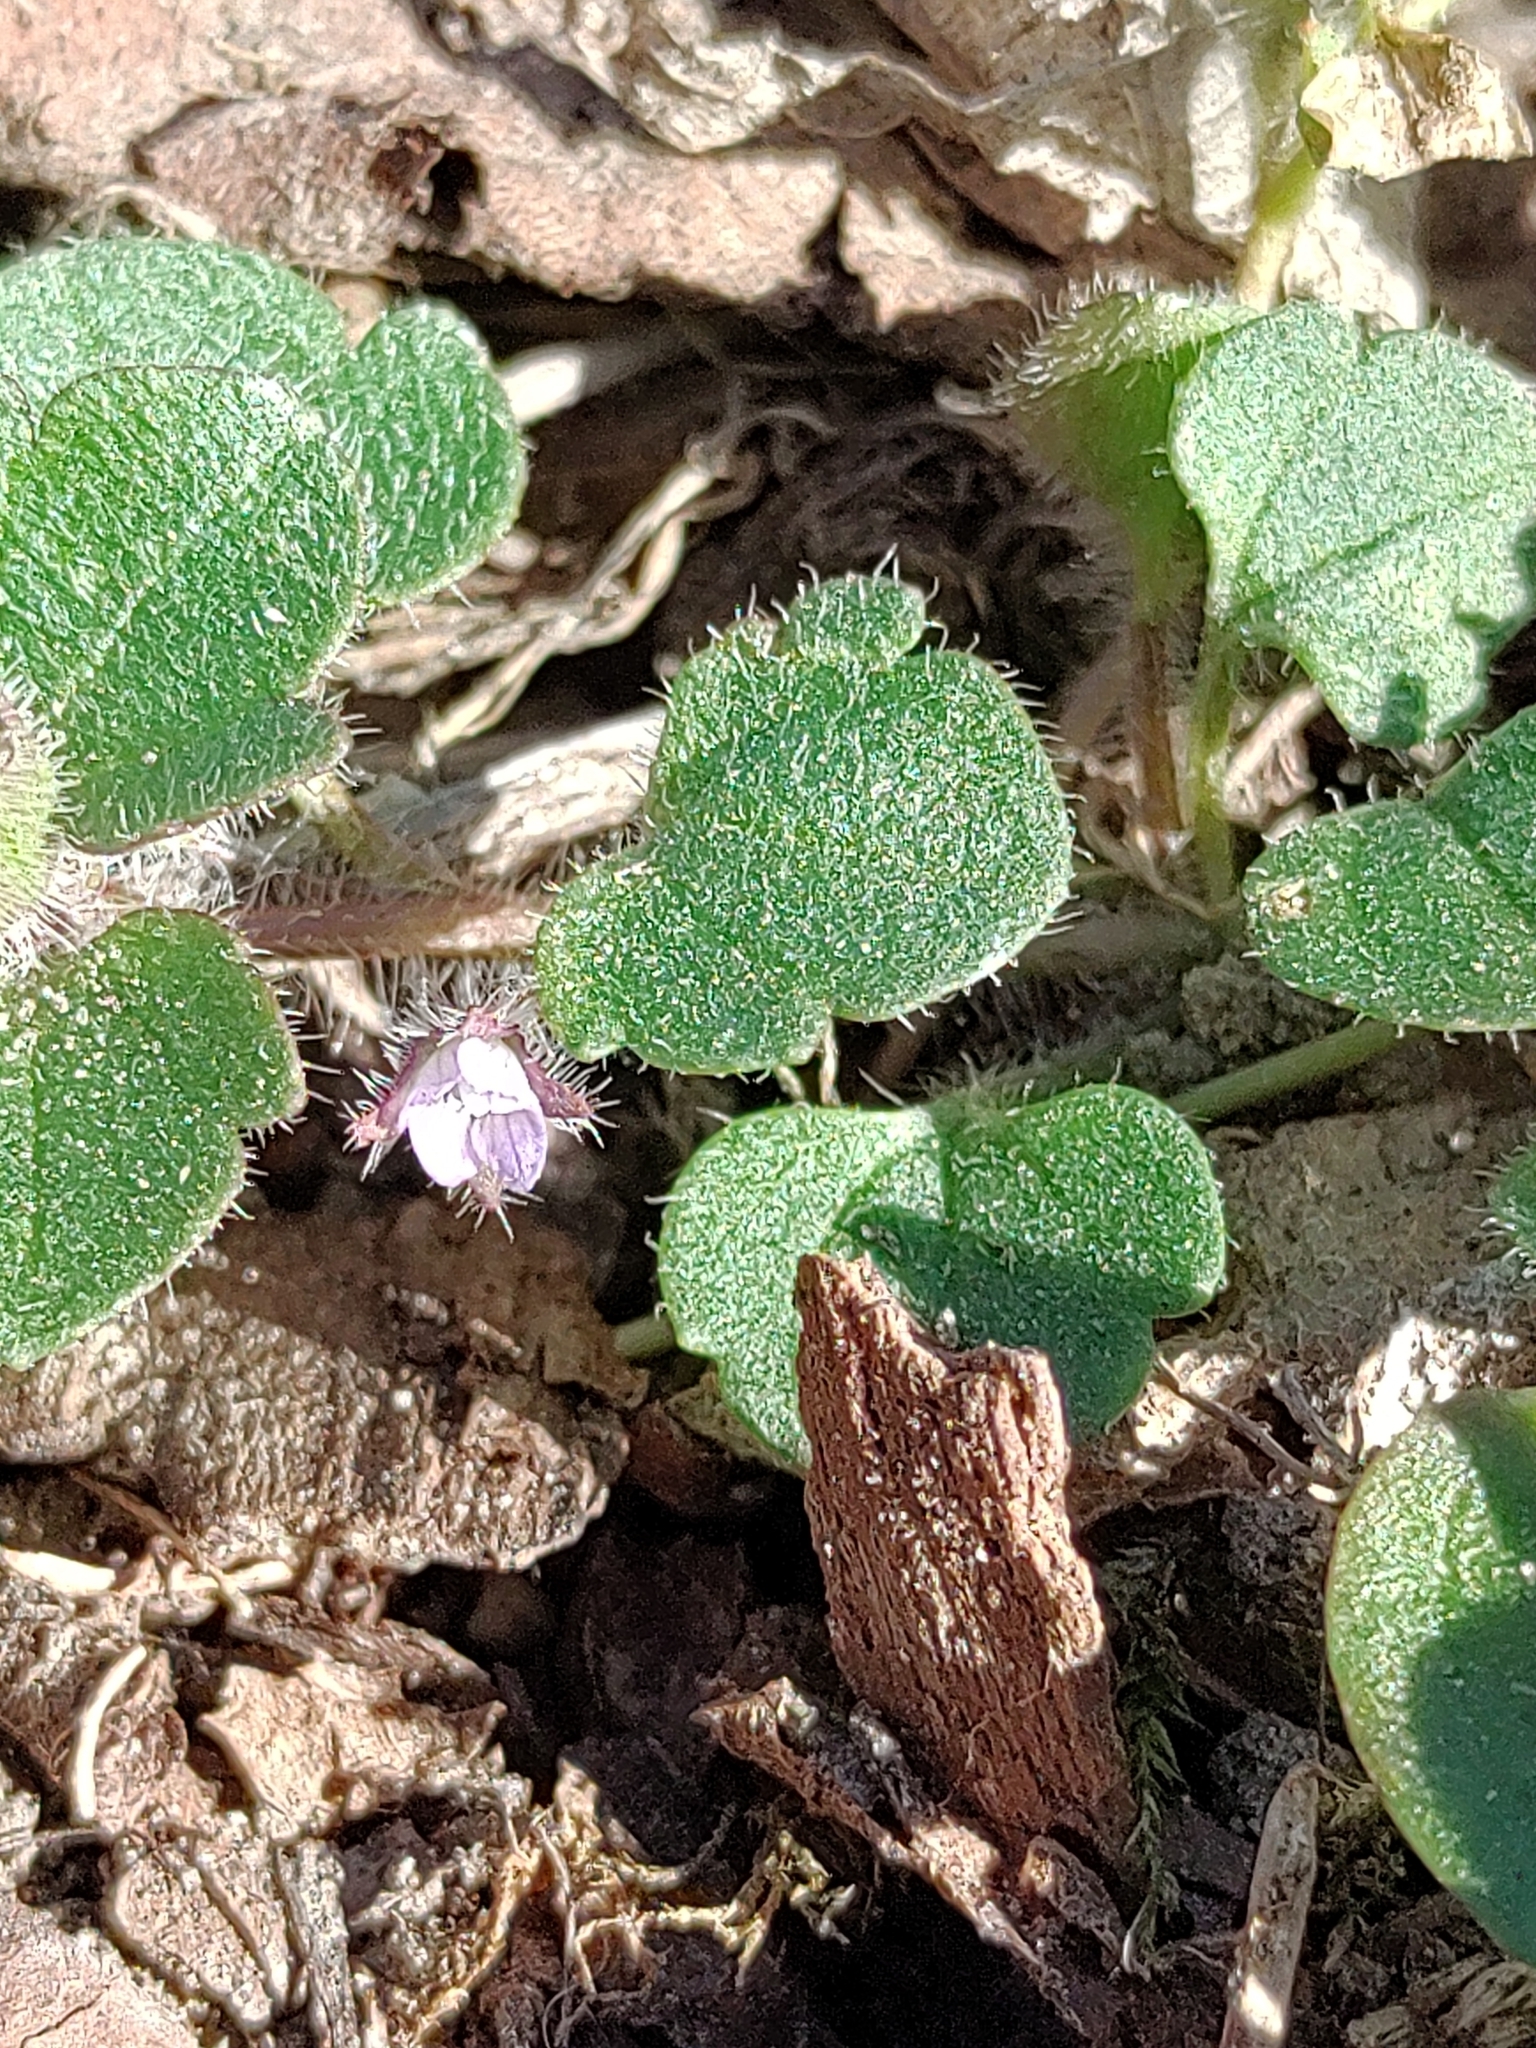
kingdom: Plantae
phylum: Tracheophyta
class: Magnoliopsida
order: Lamiales
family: Plantaginaceae
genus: Veronica
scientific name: Veronica sublobata
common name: False ivy-leaved speedwell
